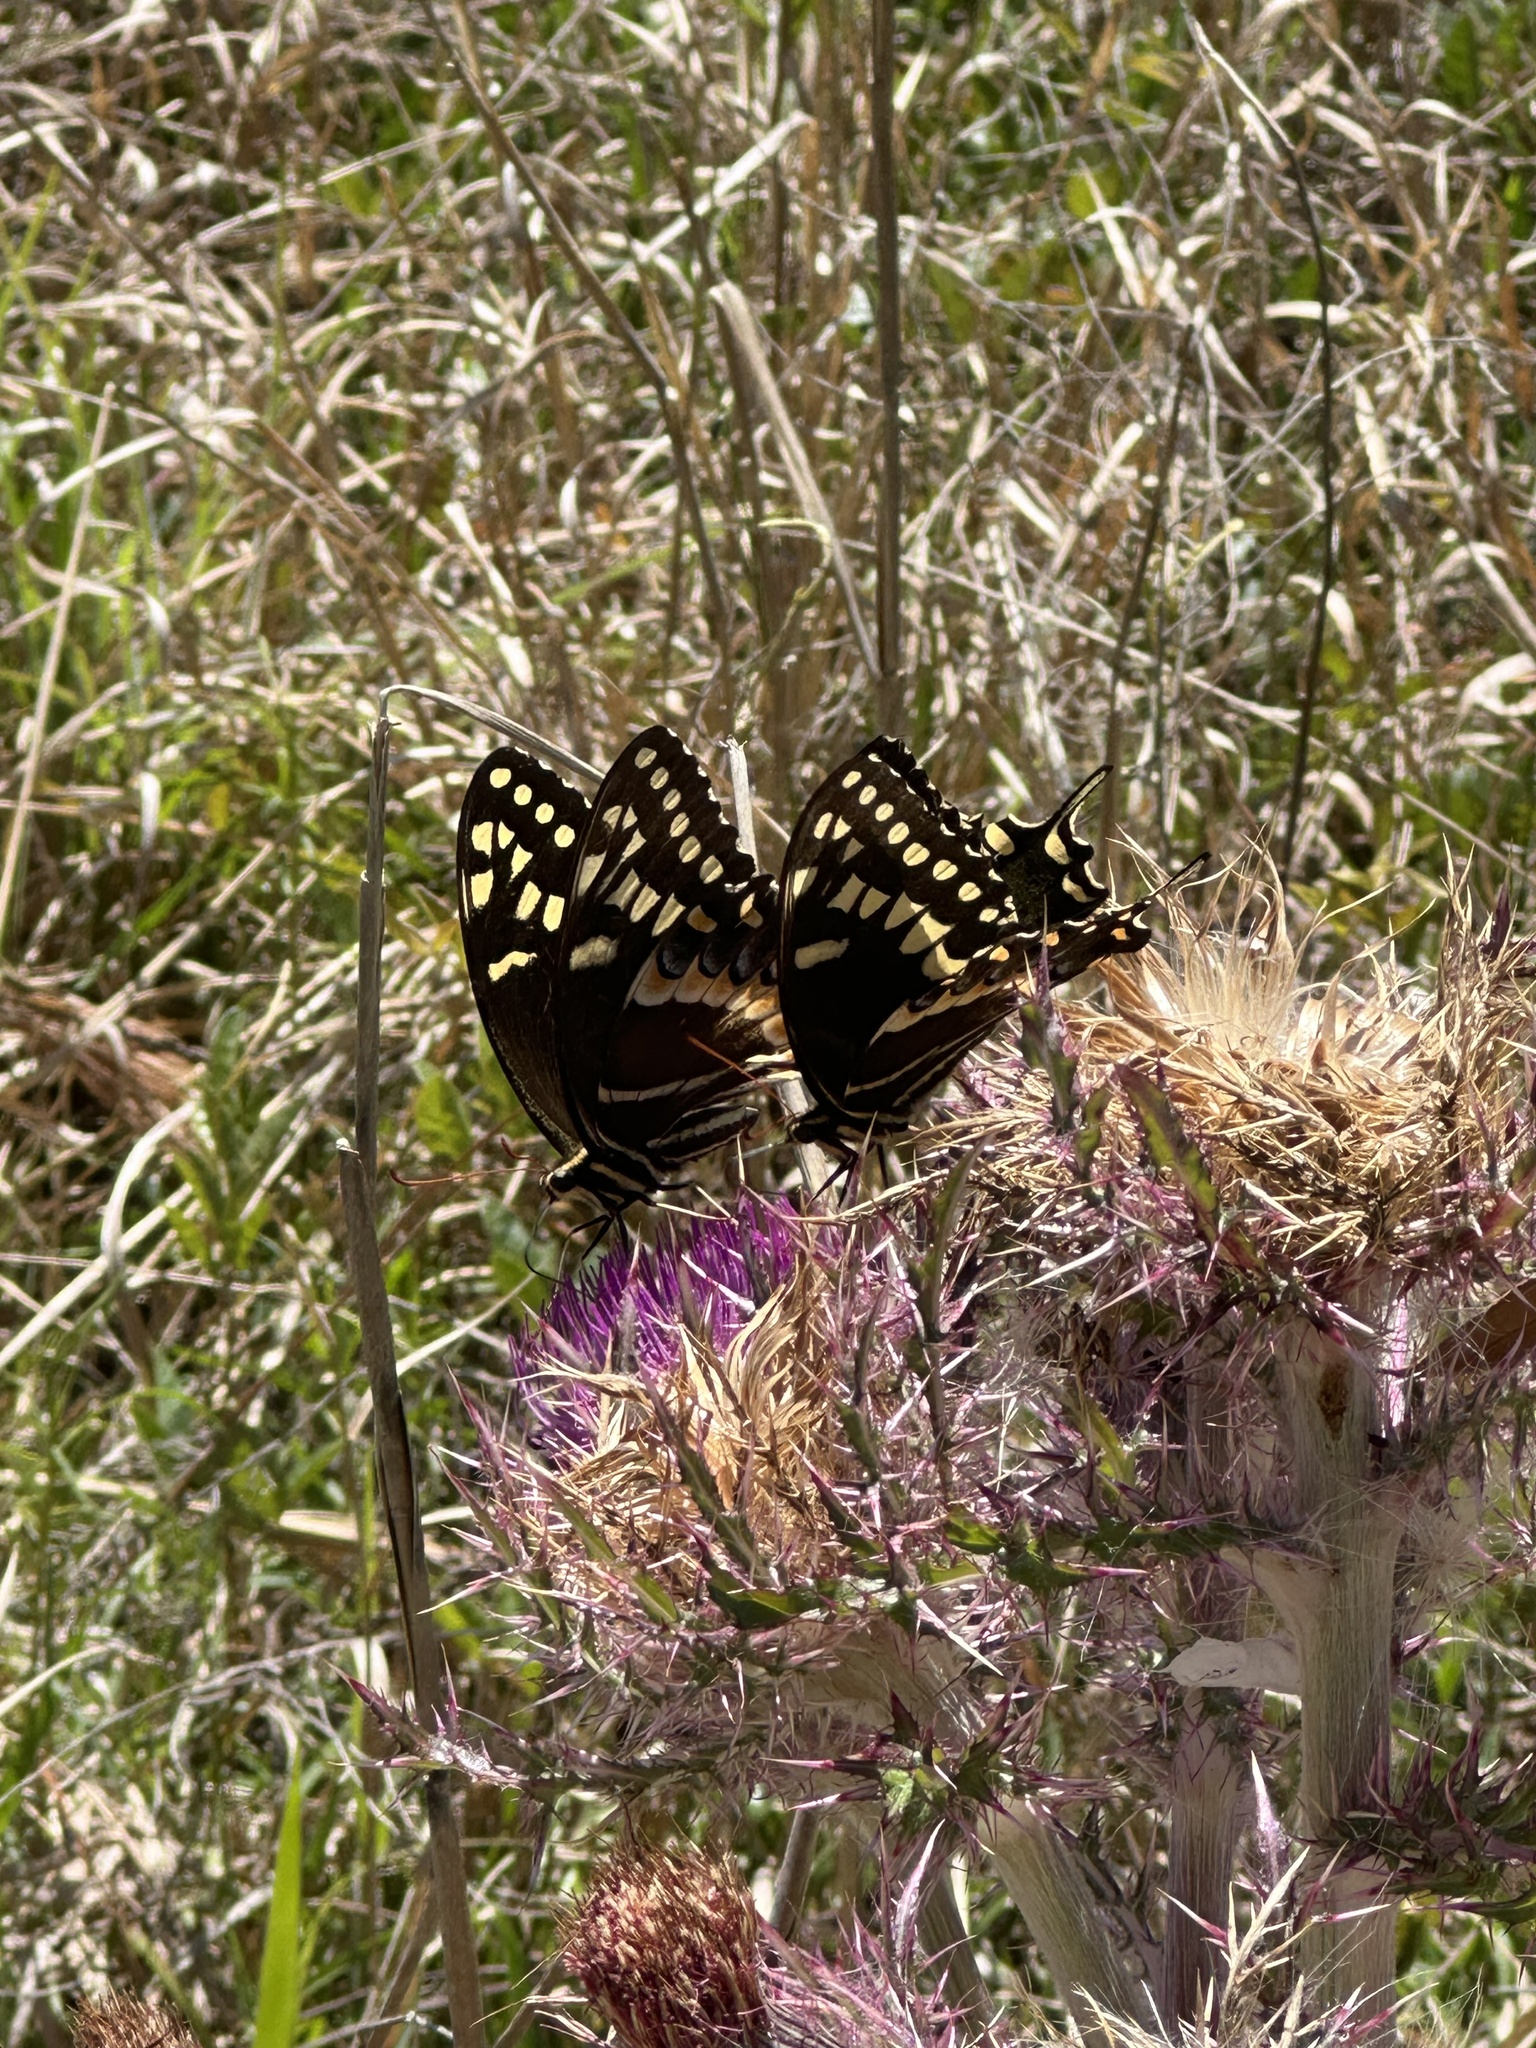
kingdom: Animalia
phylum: Arthropoda
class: Insecta
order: Lepidoptera
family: Papilionidae
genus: Papilio
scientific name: Papilio palamedes
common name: Palamedes swallowtail
